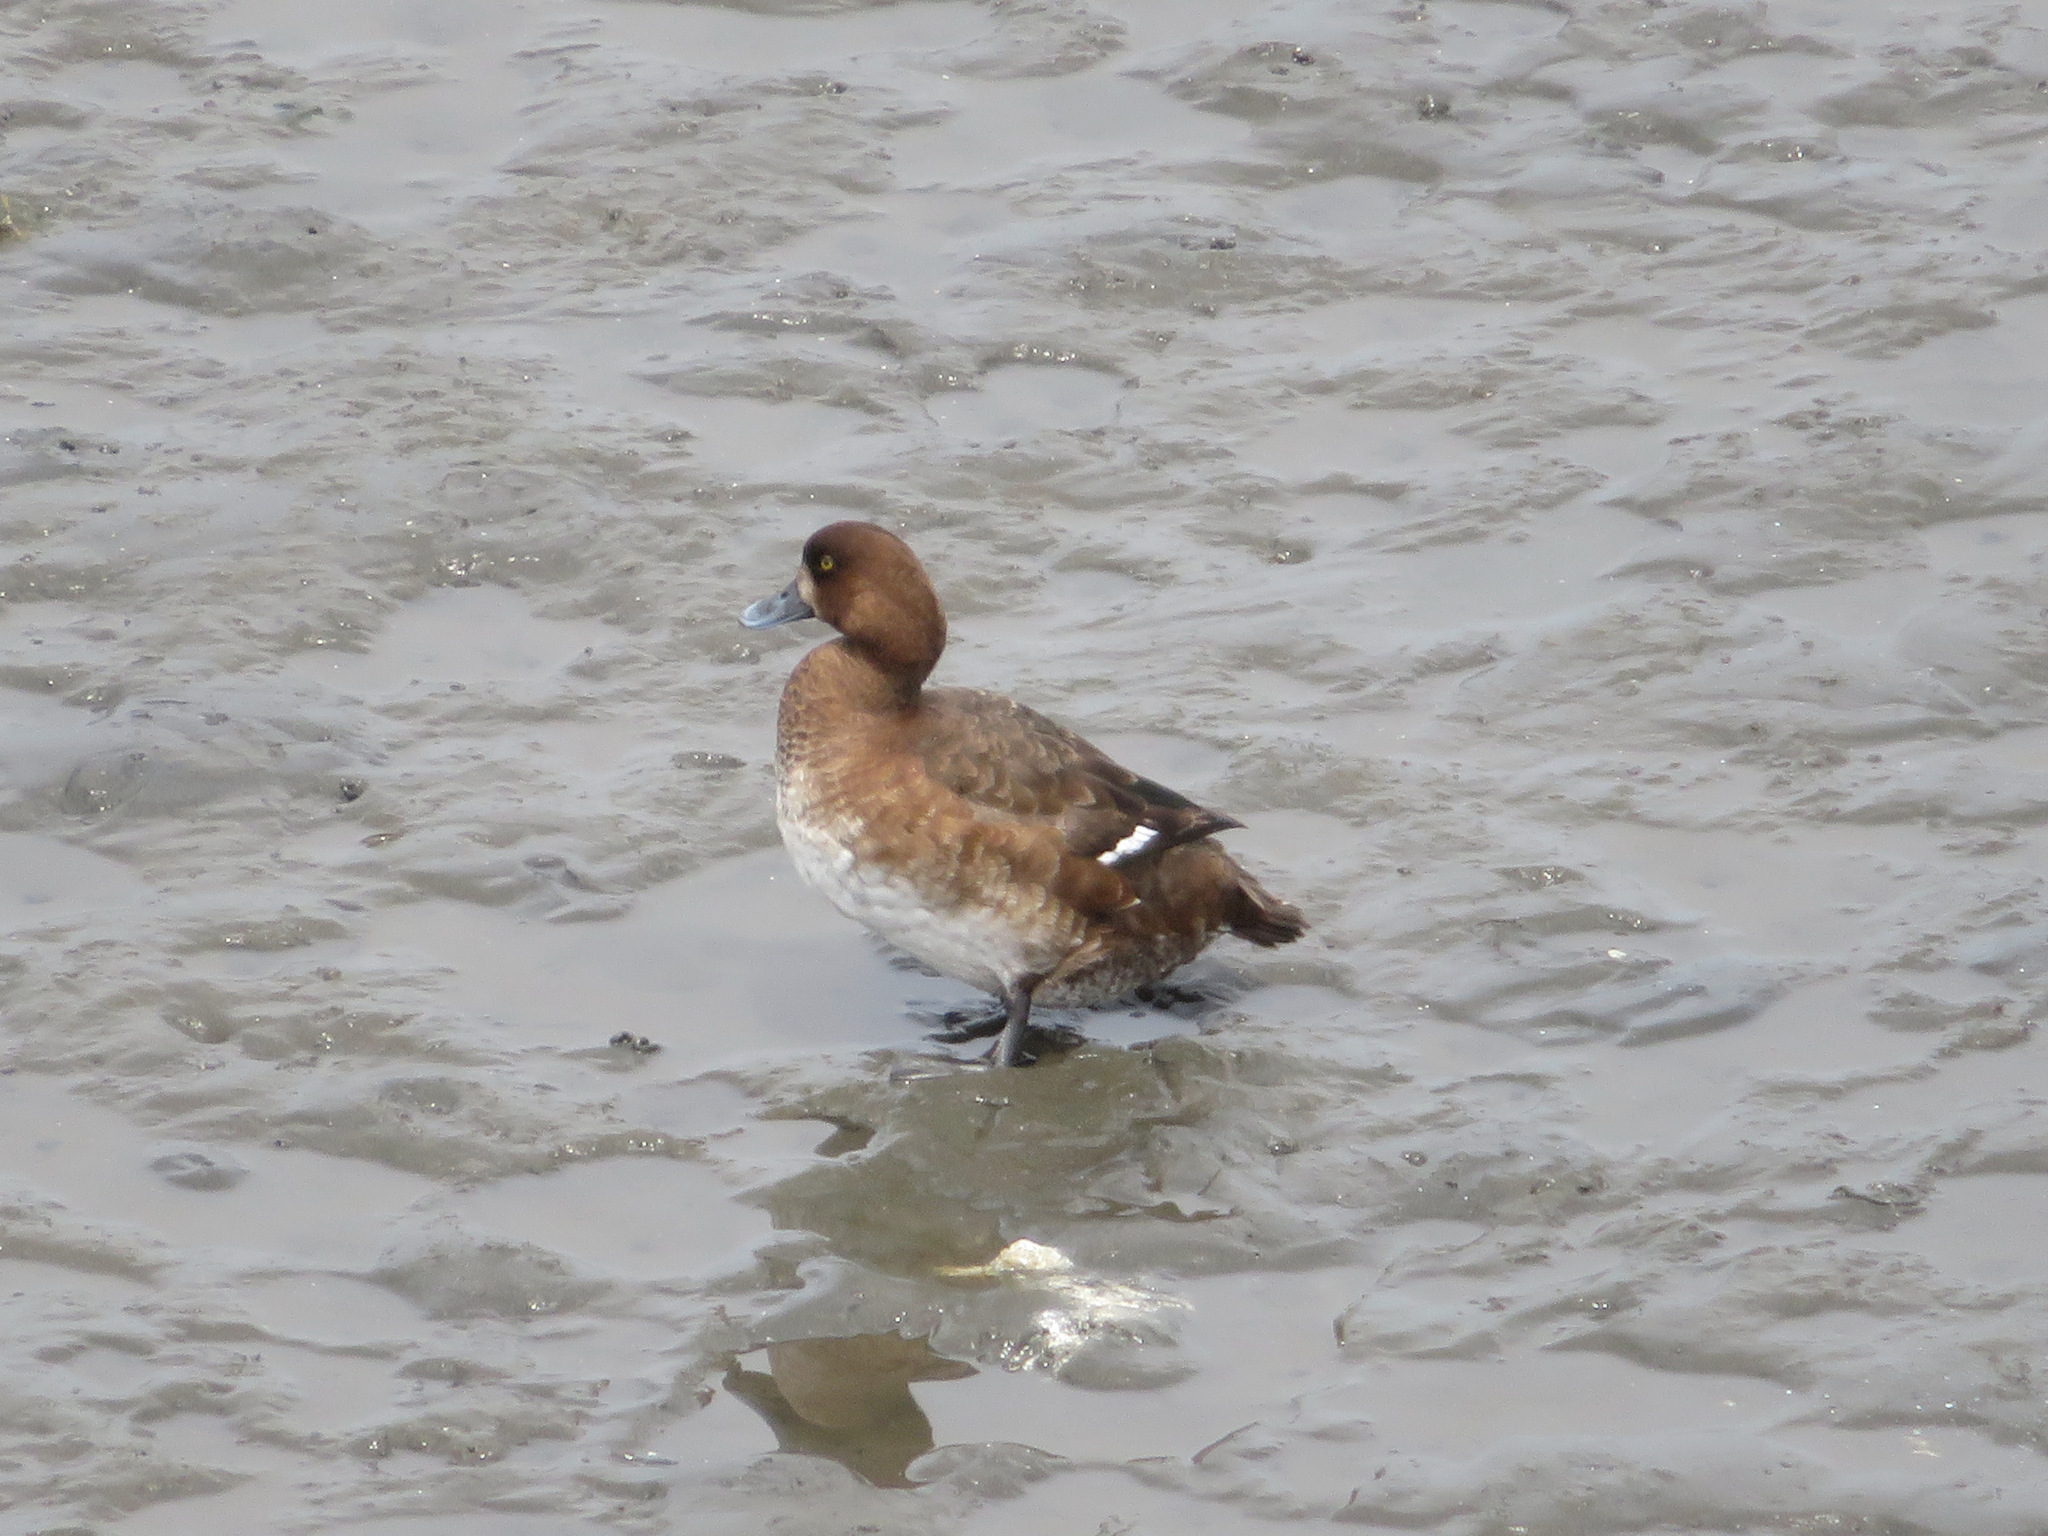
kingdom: Animalia
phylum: Chordata
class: Aves
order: Anseriformes
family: Anatidae
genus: Aythya
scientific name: Aythya marila
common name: Greater scaup
